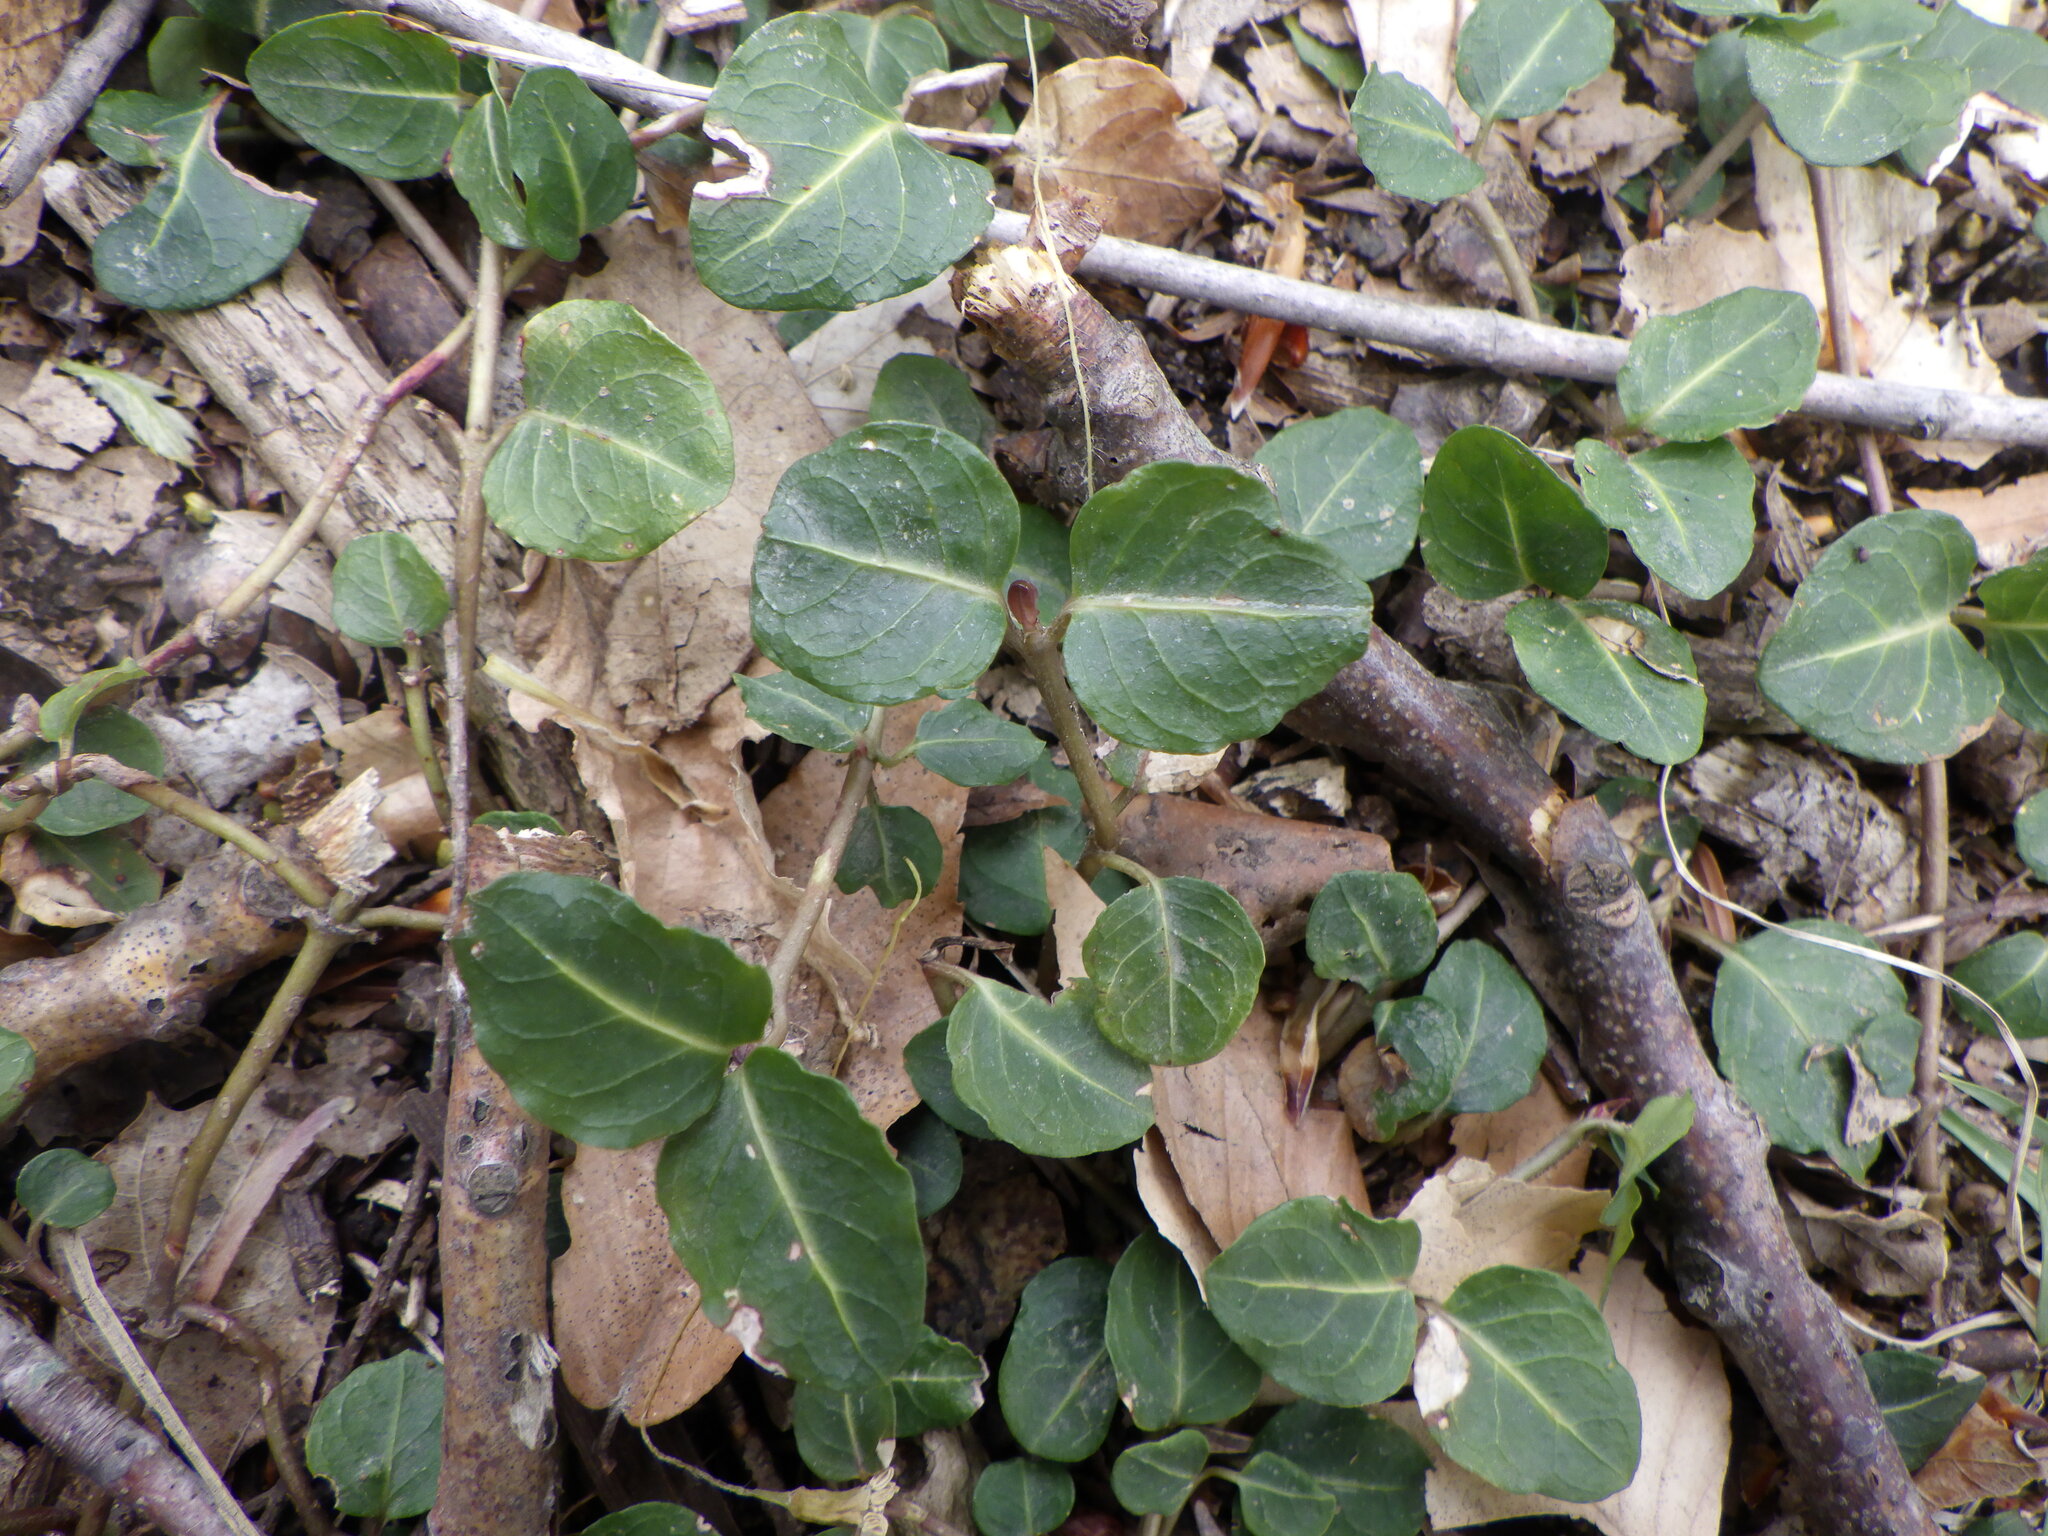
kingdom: Plantae
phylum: Tracheophyta
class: Magnoliopsida
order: Gentianales
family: Rubiaceae
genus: Mitchella
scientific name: Mitchella repens
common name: Partridge-berry
